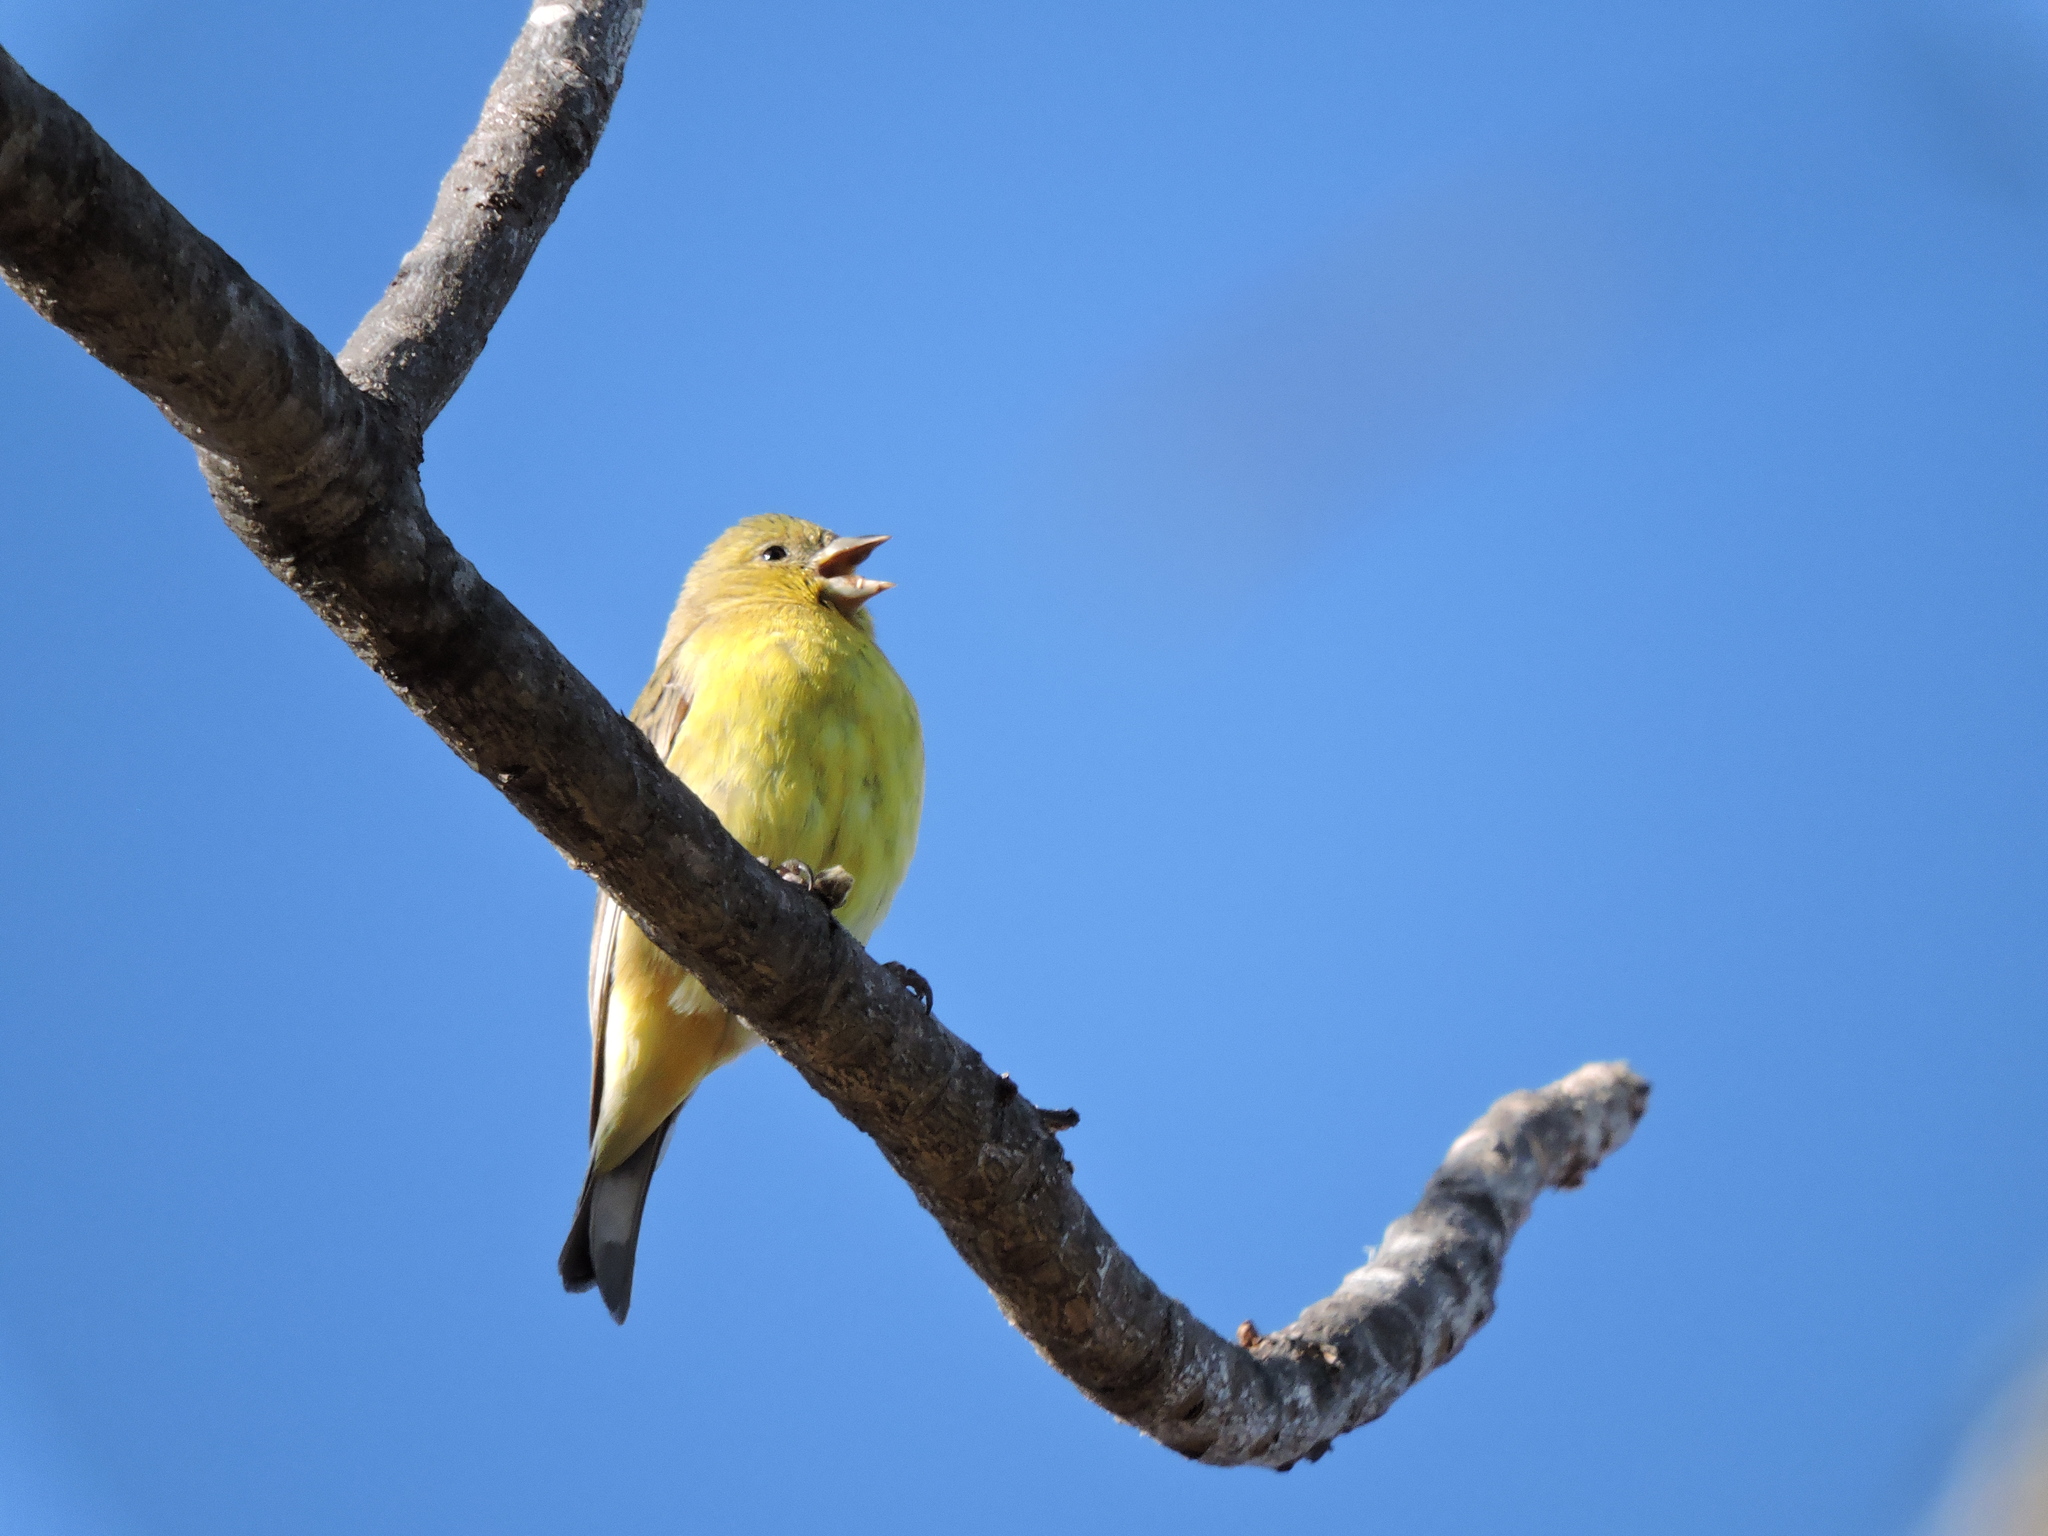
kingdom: Animalia
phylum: Chordata
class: Aves
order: Passeriformes
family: Fringillidae
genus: Spinus
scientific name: Spinus psaltria
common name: Lesser goldfinch
